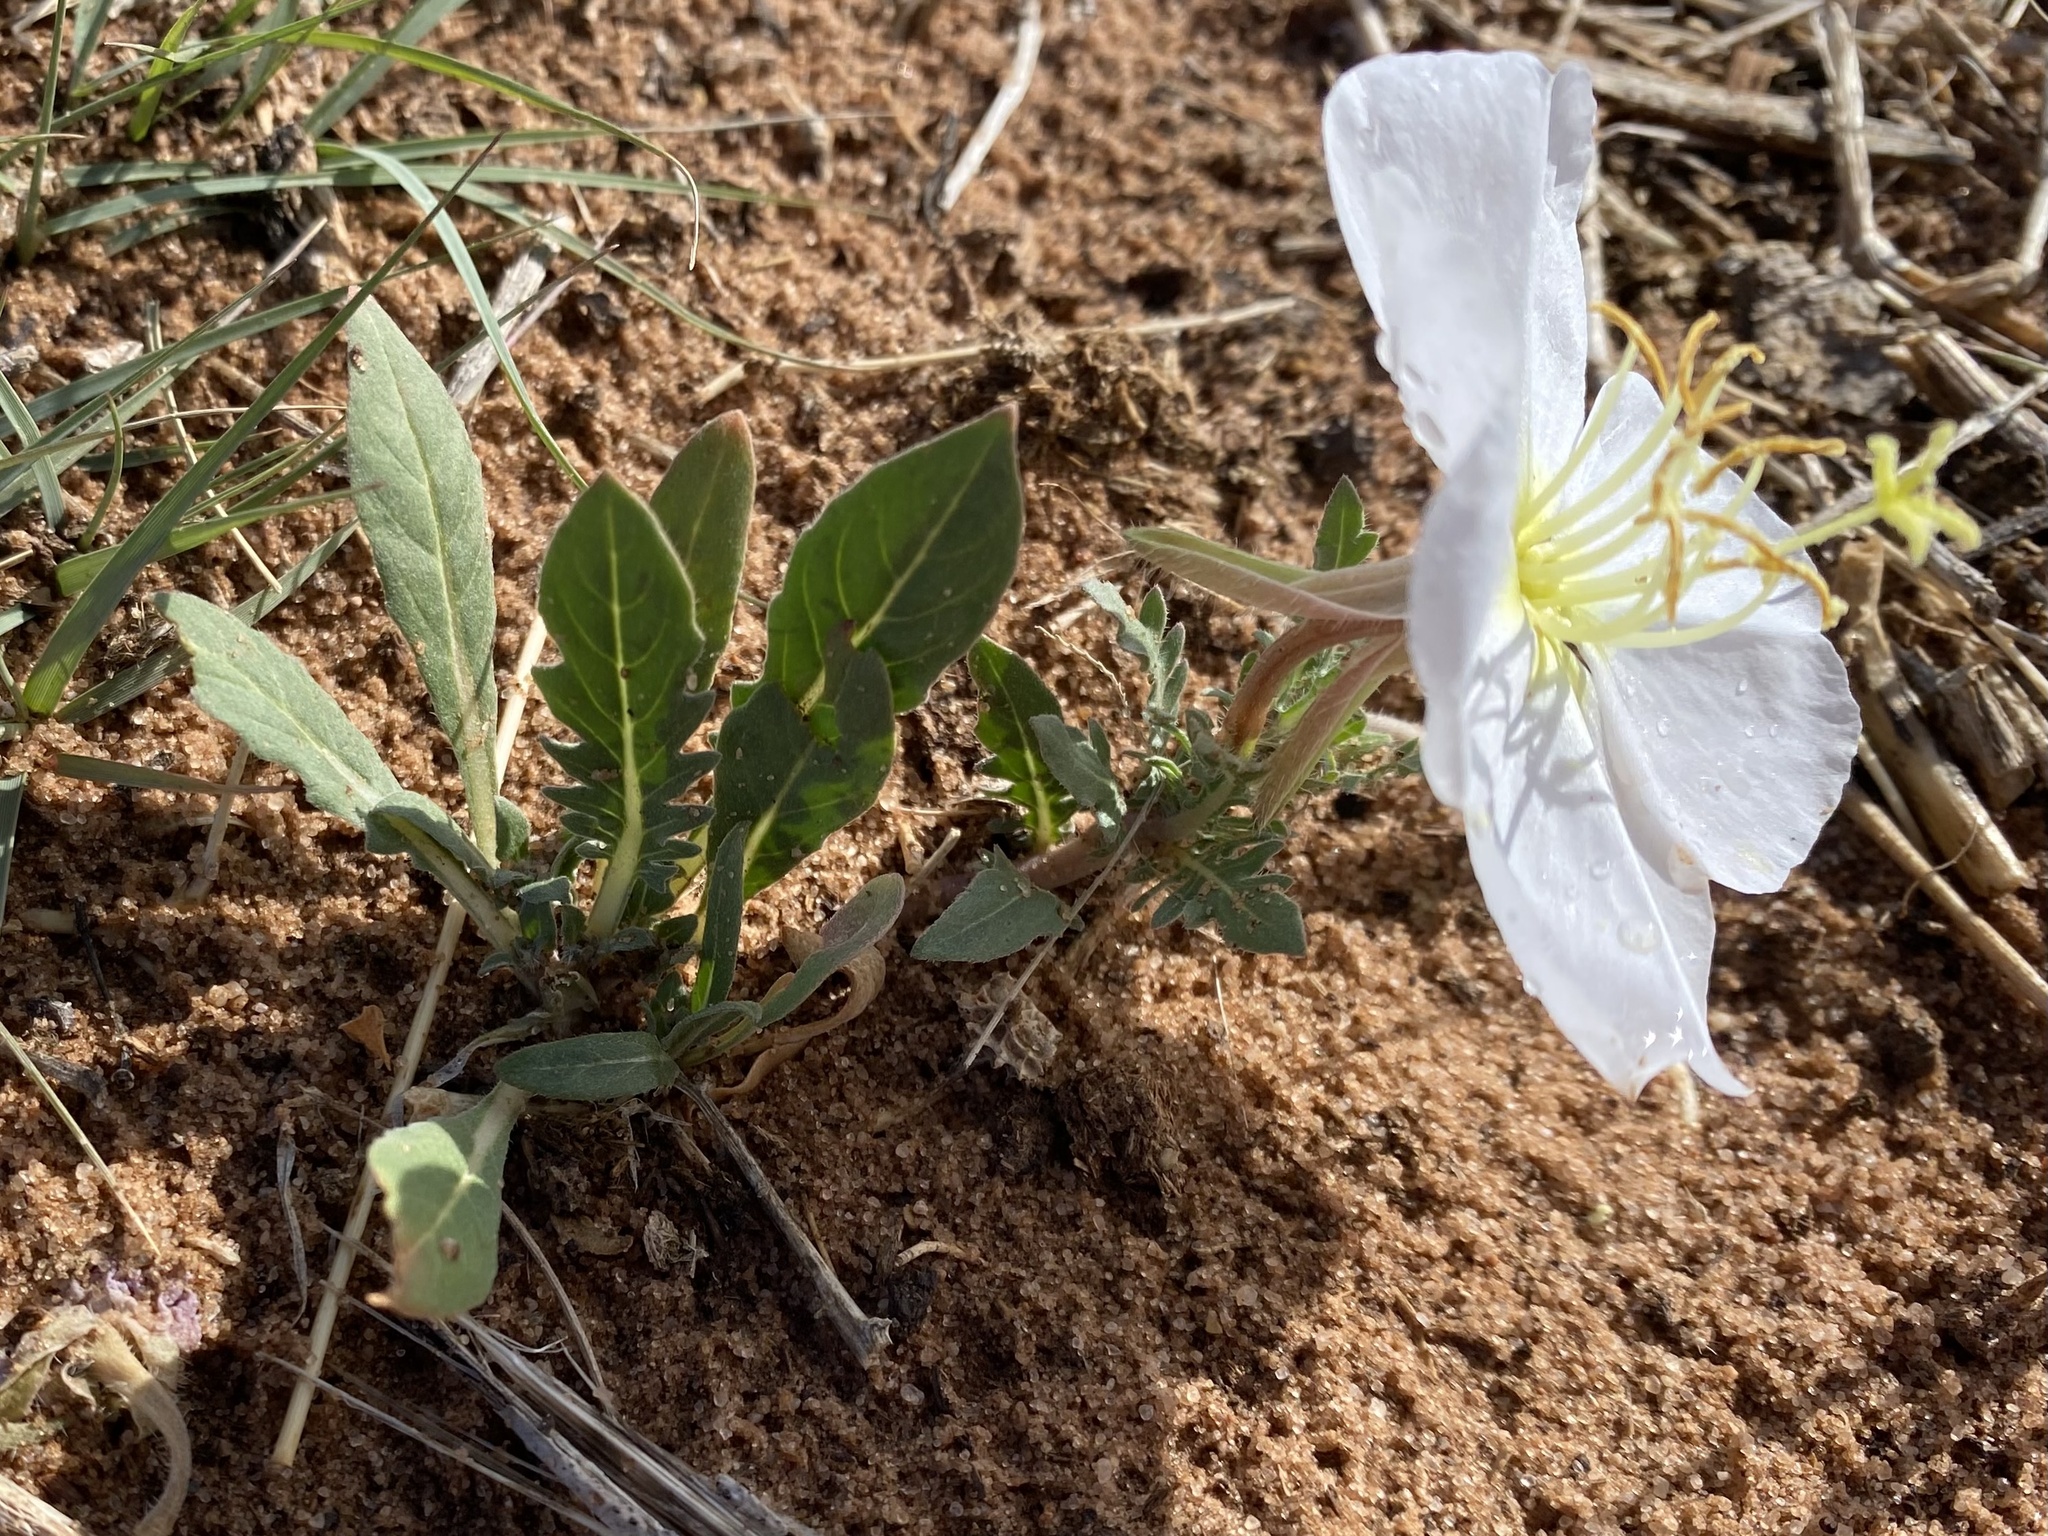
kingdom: Plantae
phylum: Tracheophyta
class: Magnoliopsida
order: Myrtales
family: Onagraceae
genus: Oenothera
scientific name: Oenothera albicaulis
